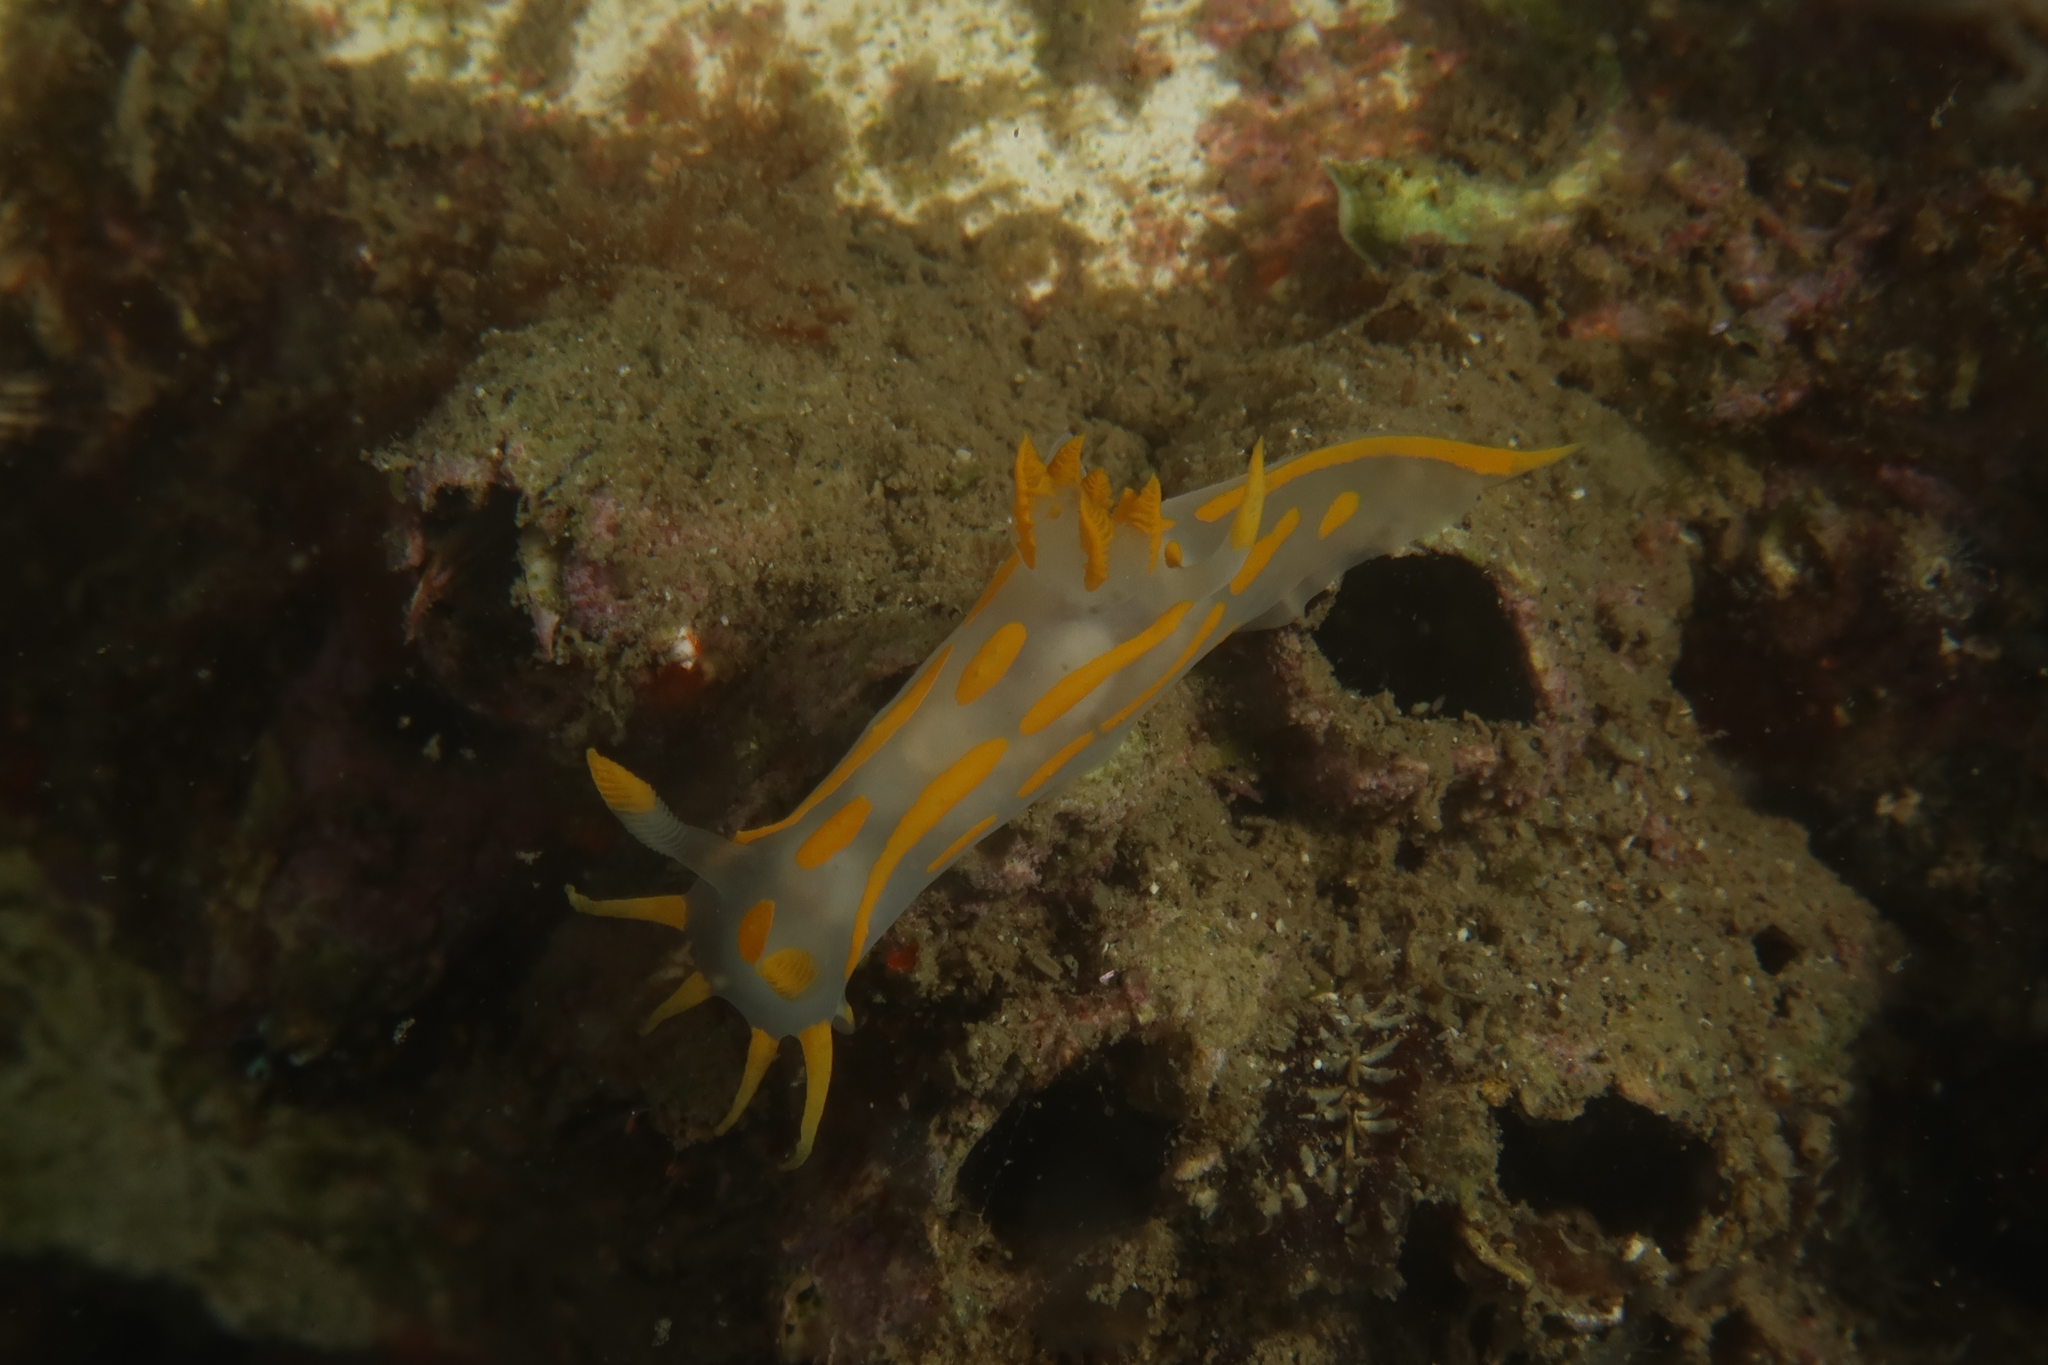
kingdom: Animalia
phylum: Mollusca
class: Gastropoda
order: Nudibranchia
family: Polyceridae
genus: Polycera
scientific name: Polycera quadrilineata
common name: Four-striped polycera
